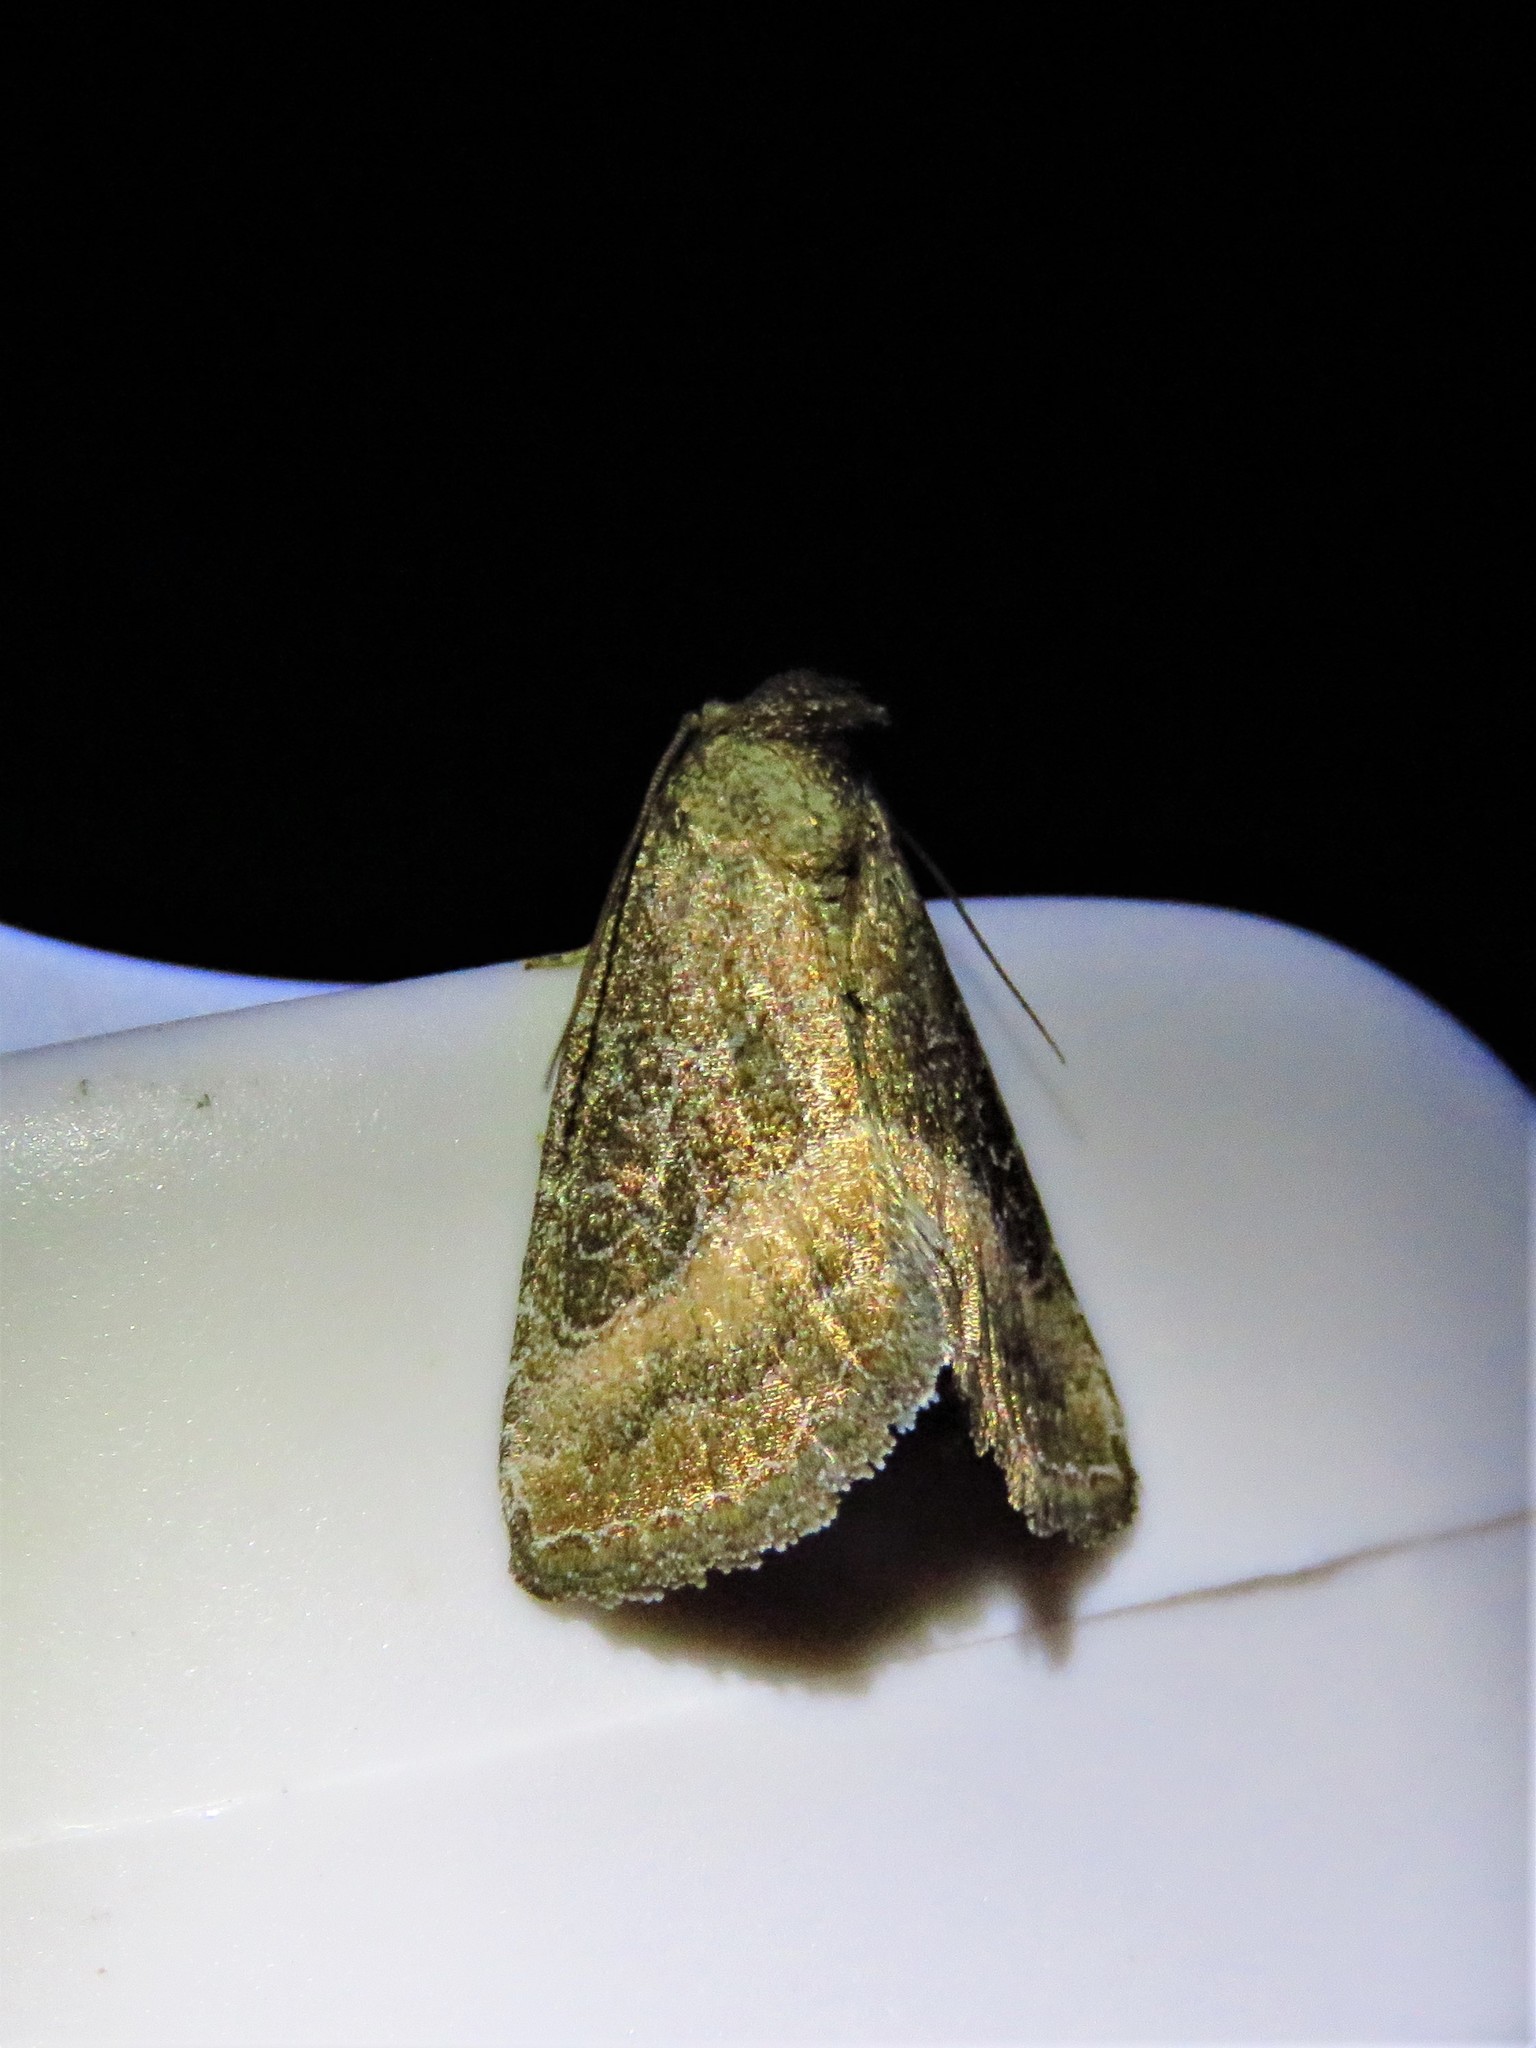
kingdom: Animalia
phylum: Arthropoda
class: Insecta
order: Lepidoptera
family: Noctuidae
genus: Ogdoconta
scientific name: Ogdoconta cinereola
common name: Common pinkband
